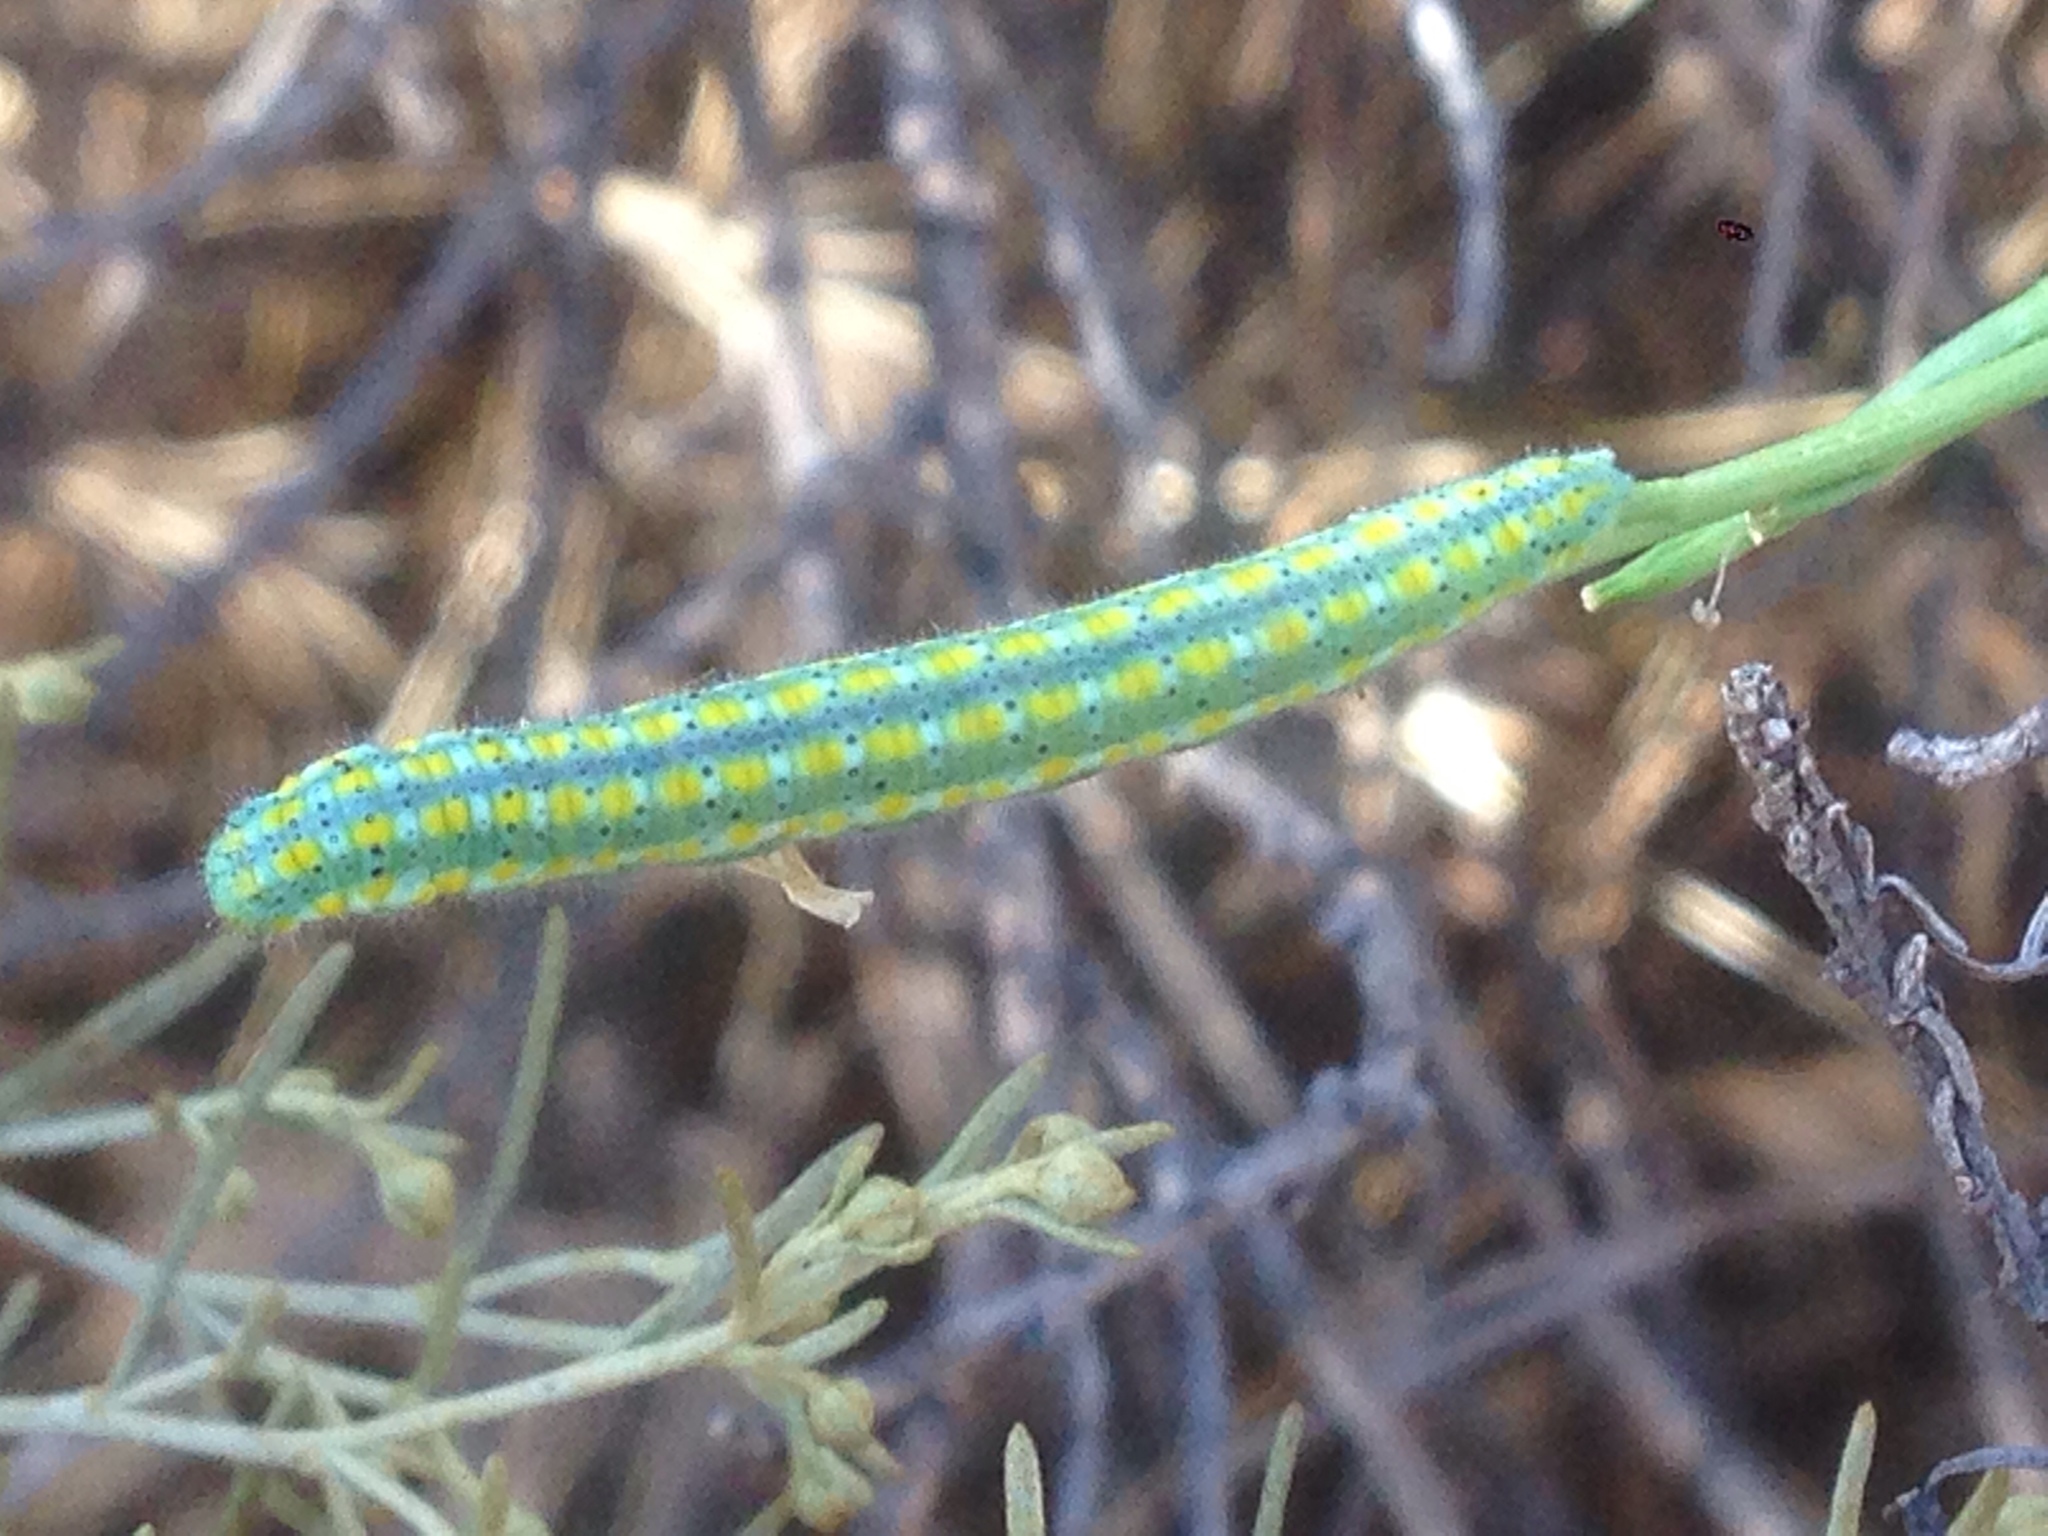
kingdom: Animalia
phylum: Arthropoda
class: Insecta
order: Lepidoptera
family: Pieridae
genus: Pontia
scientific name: Pontia protodice
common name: Checkered white
